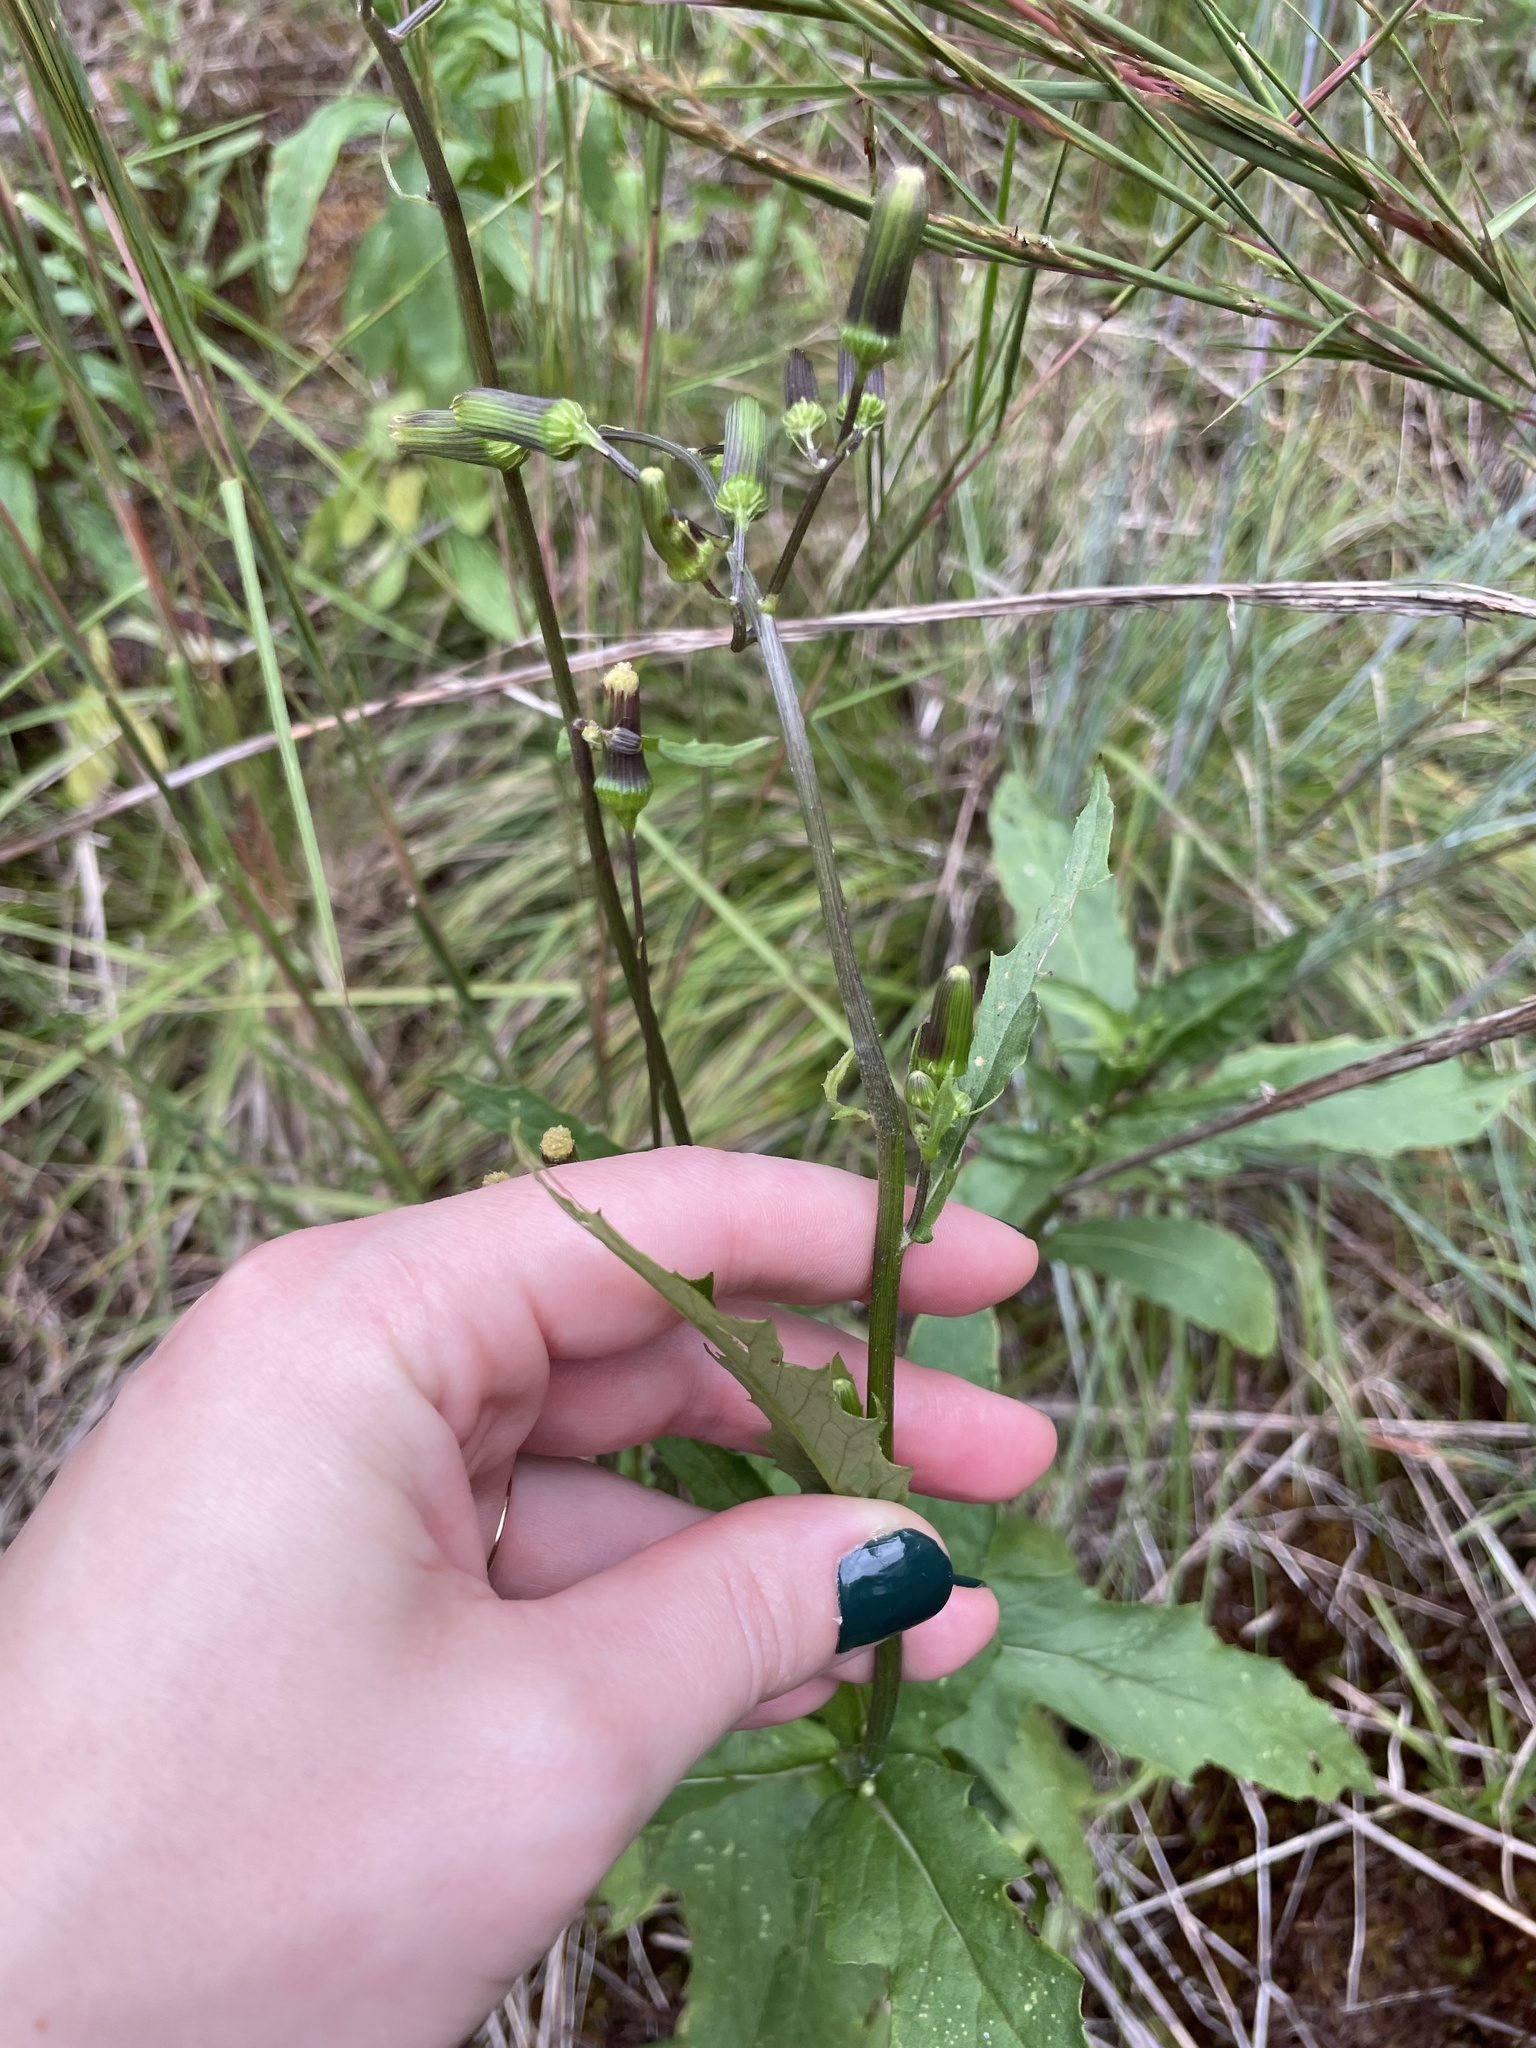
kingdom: Plantae
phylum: Tracheophyta
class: Magnoliopsida
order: Asterales
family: Asteraceae
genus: Erechtites
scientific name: Erechtites hieraciifolius
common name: American burnweed
